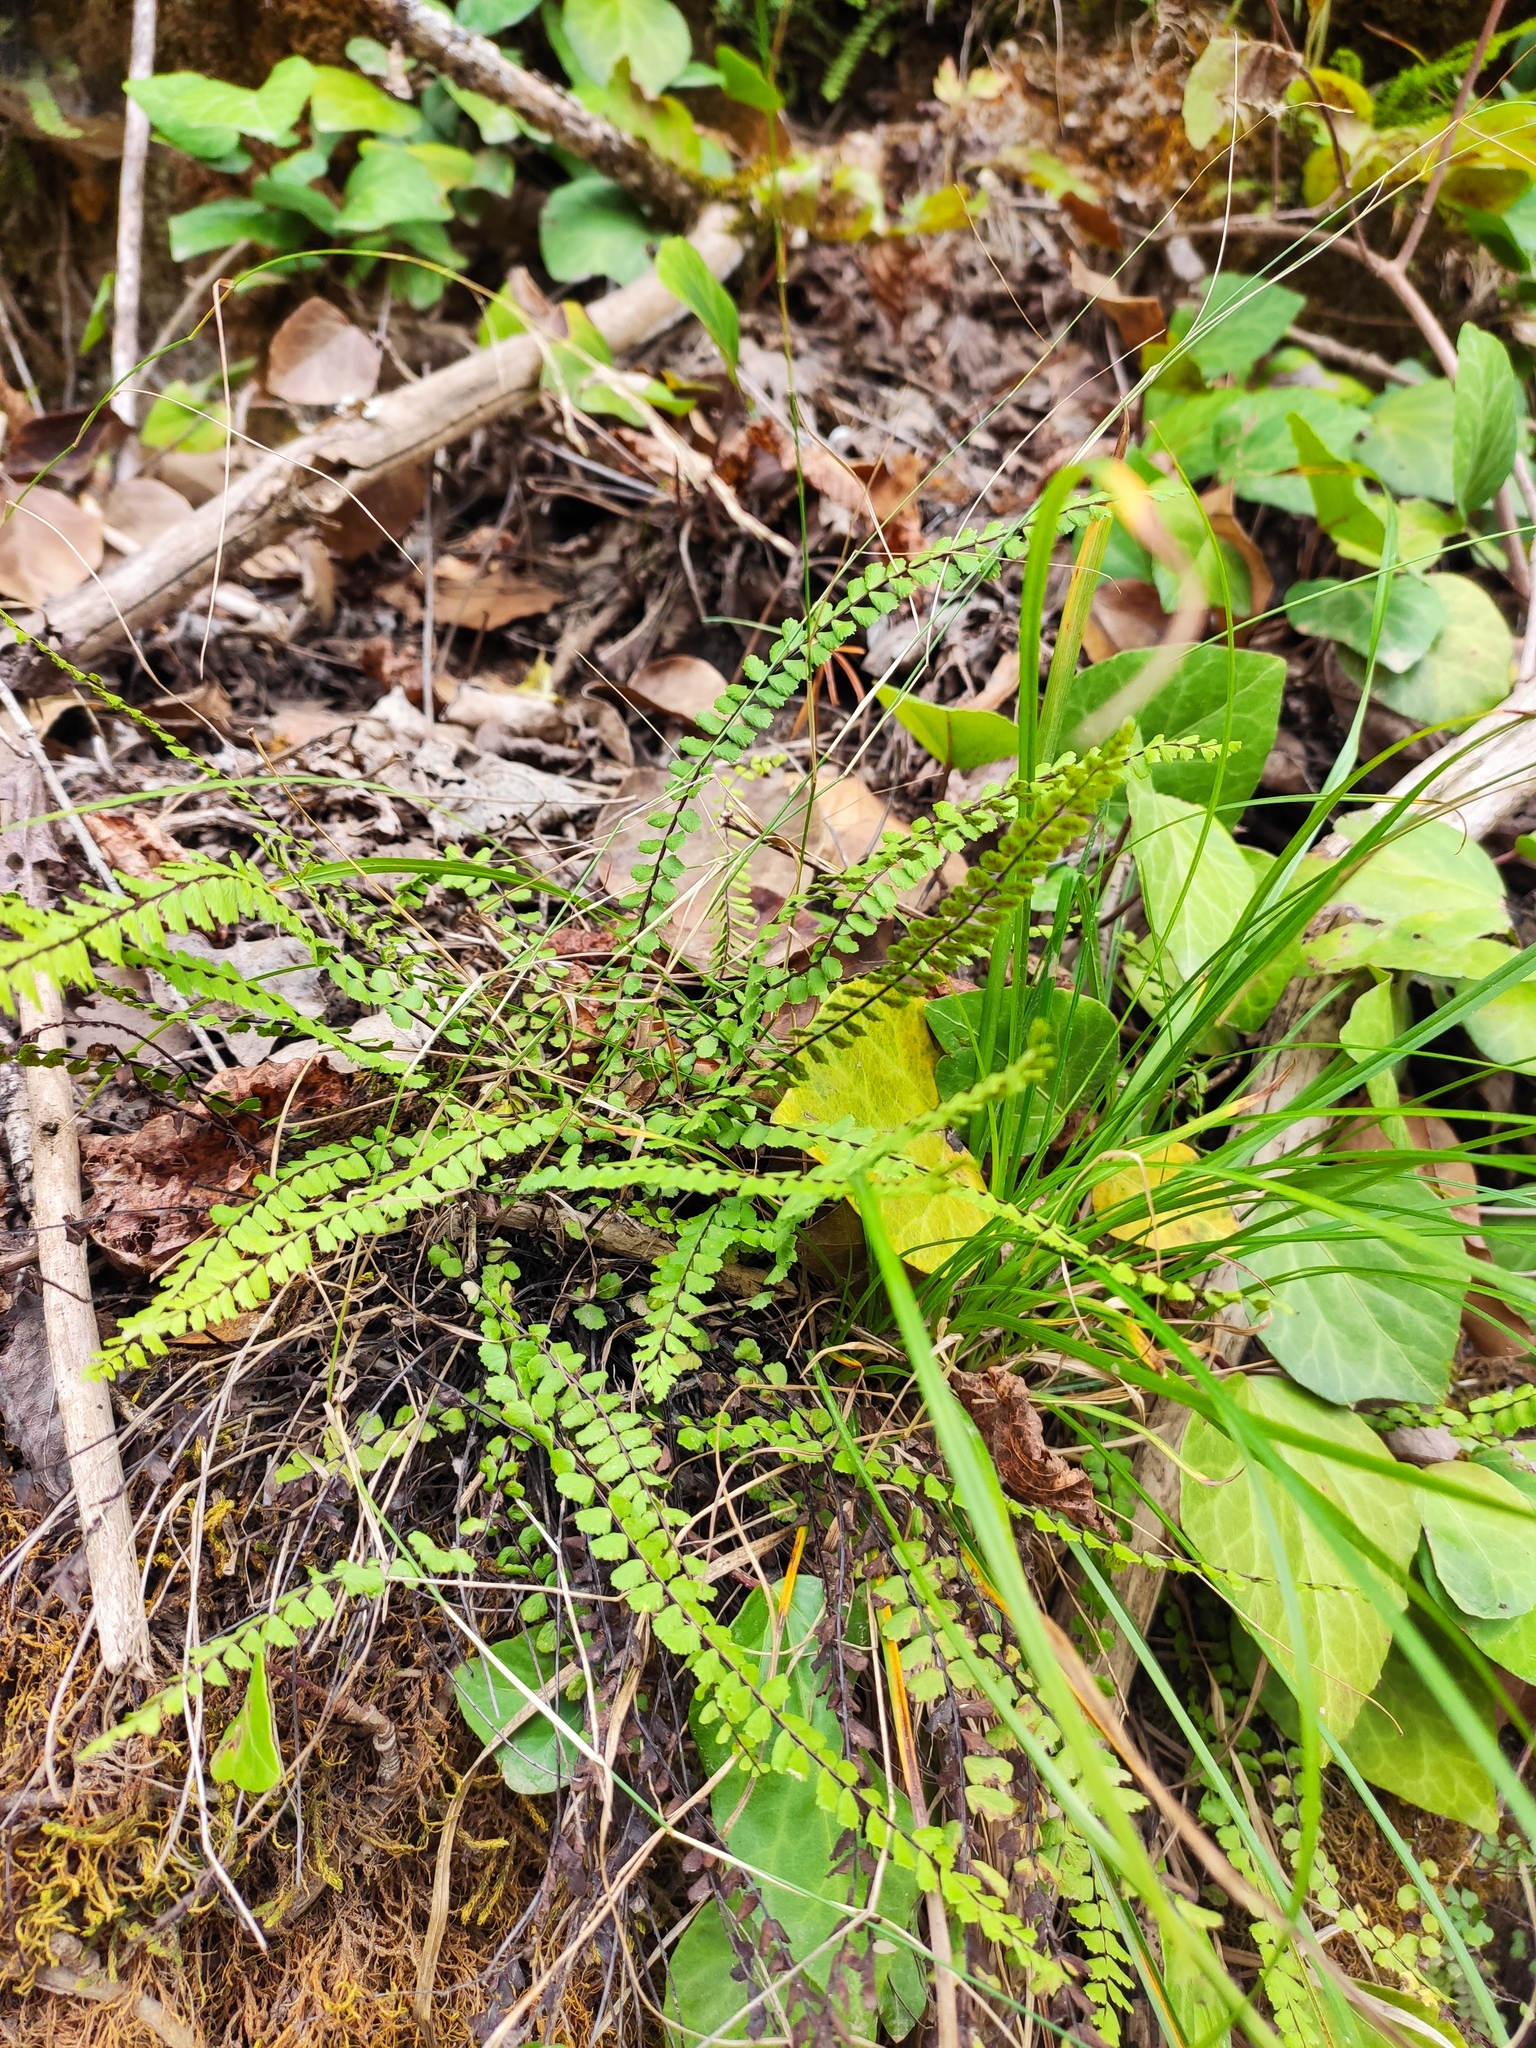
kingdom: Plantae
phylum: Tracheophyta
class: Polypodiopsida
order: Polypodiales
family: Aspleniaceae
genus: Asplenium
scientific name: Asplenium trichomanes
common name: Maidenhair spleenwort
